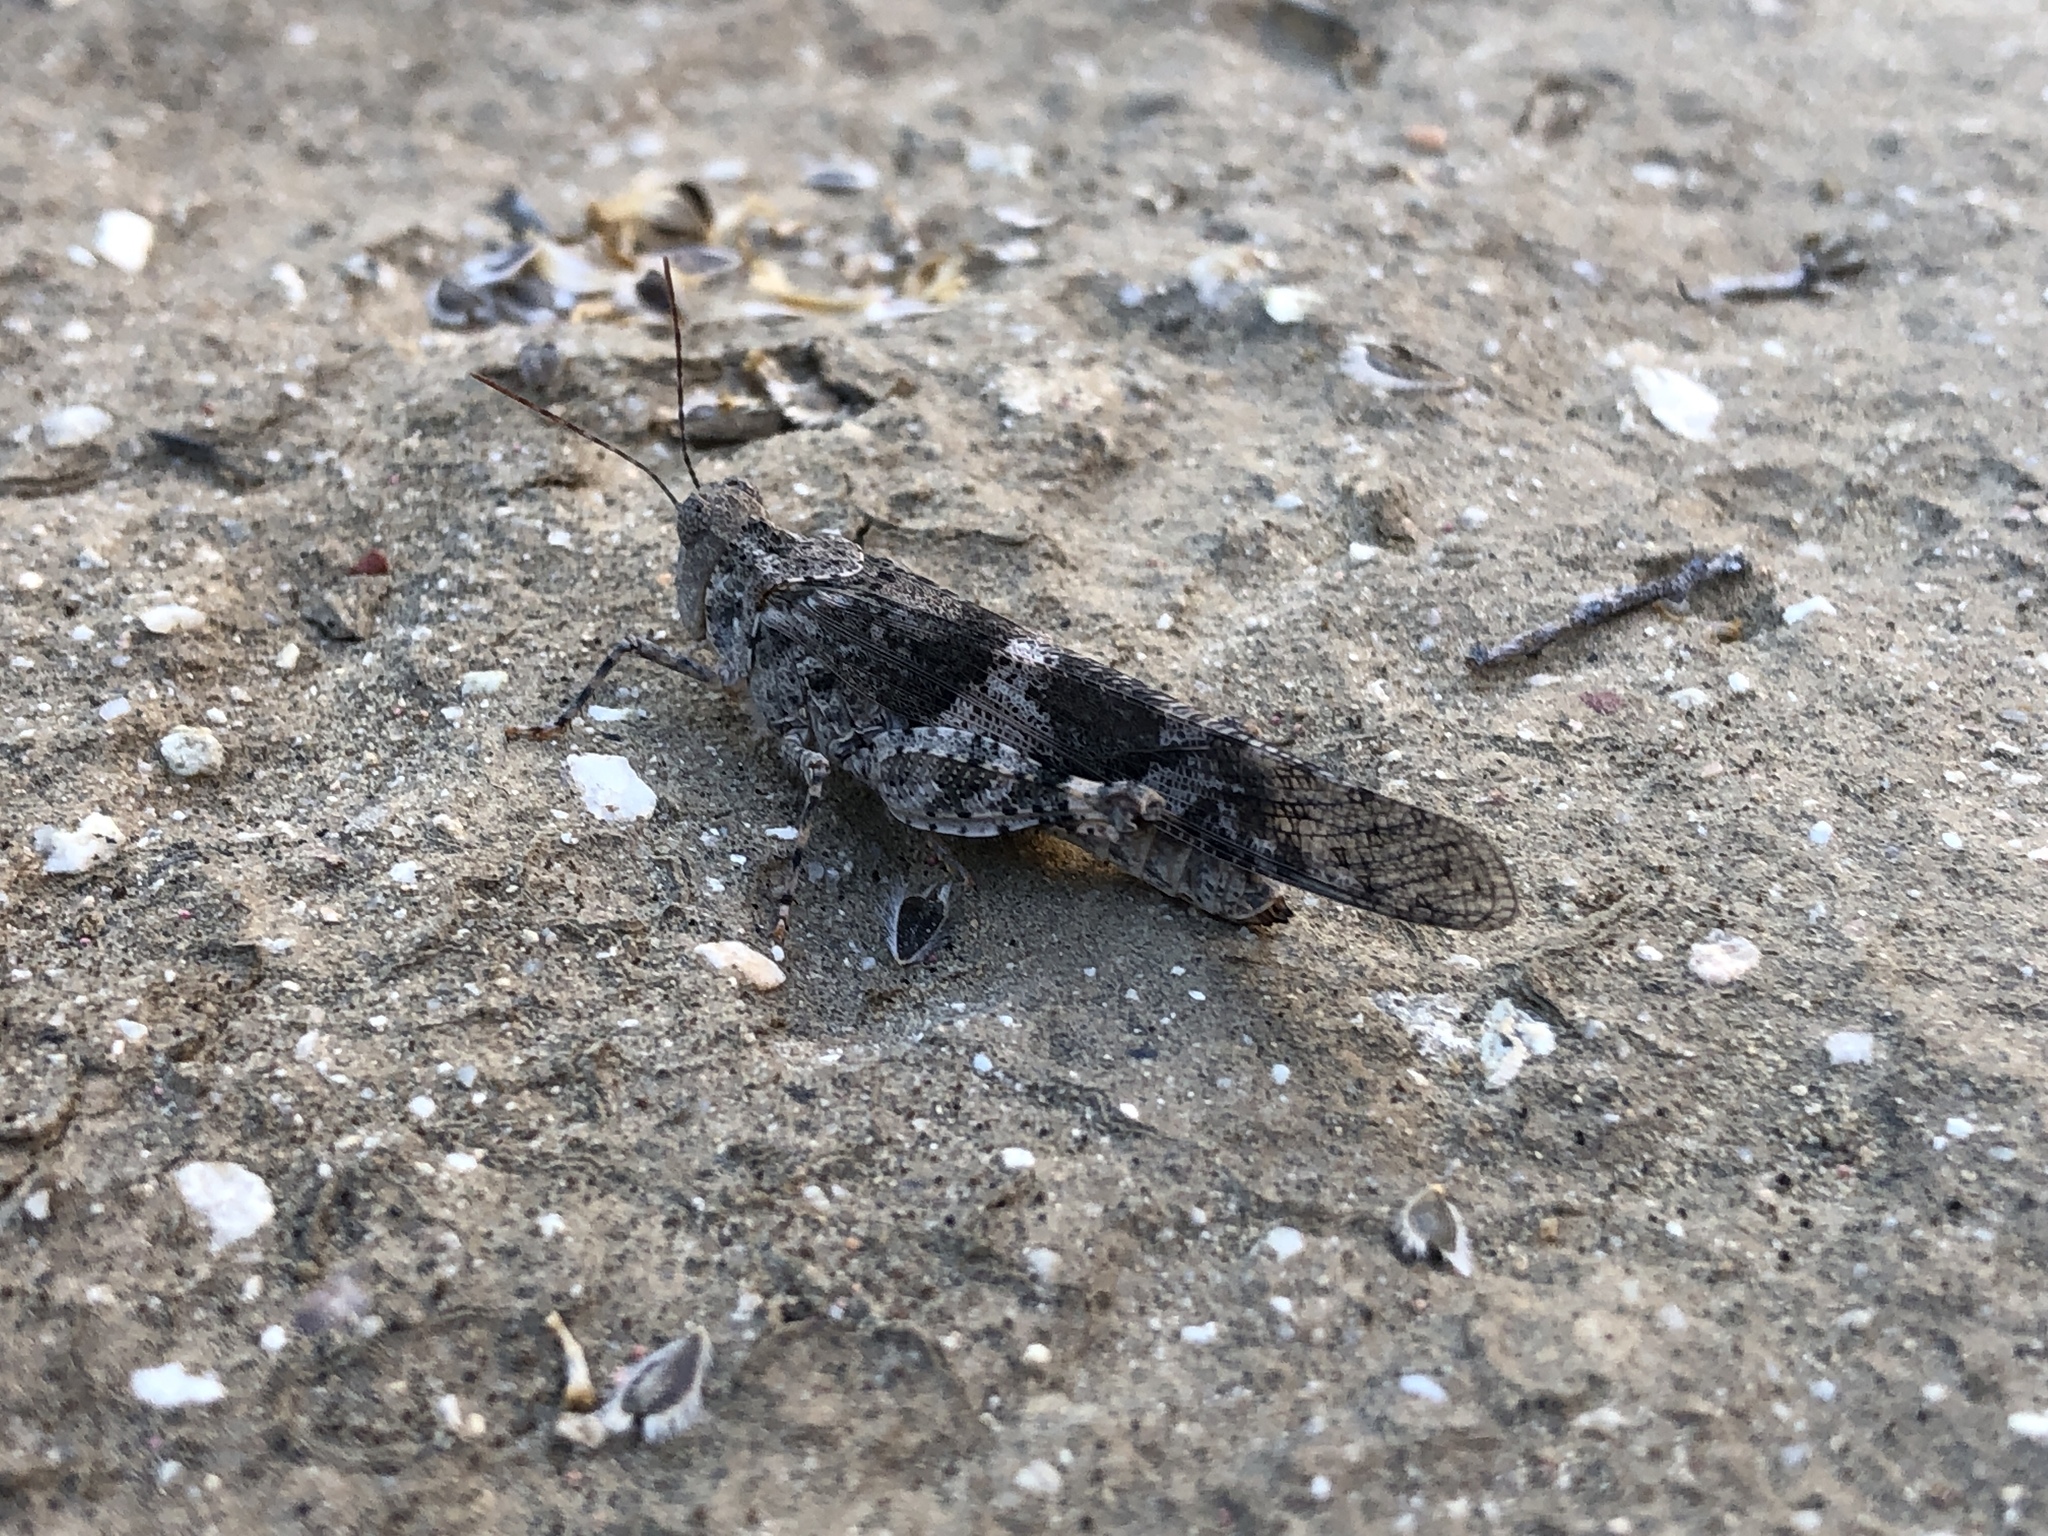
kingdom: Animalia
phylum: Arthropoda
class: Insecta
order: Orthoptera
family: Acrididae
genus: Trimerotropis
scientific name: Trimerotropis pallidipennis
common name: Pallid-winged grasshopper
